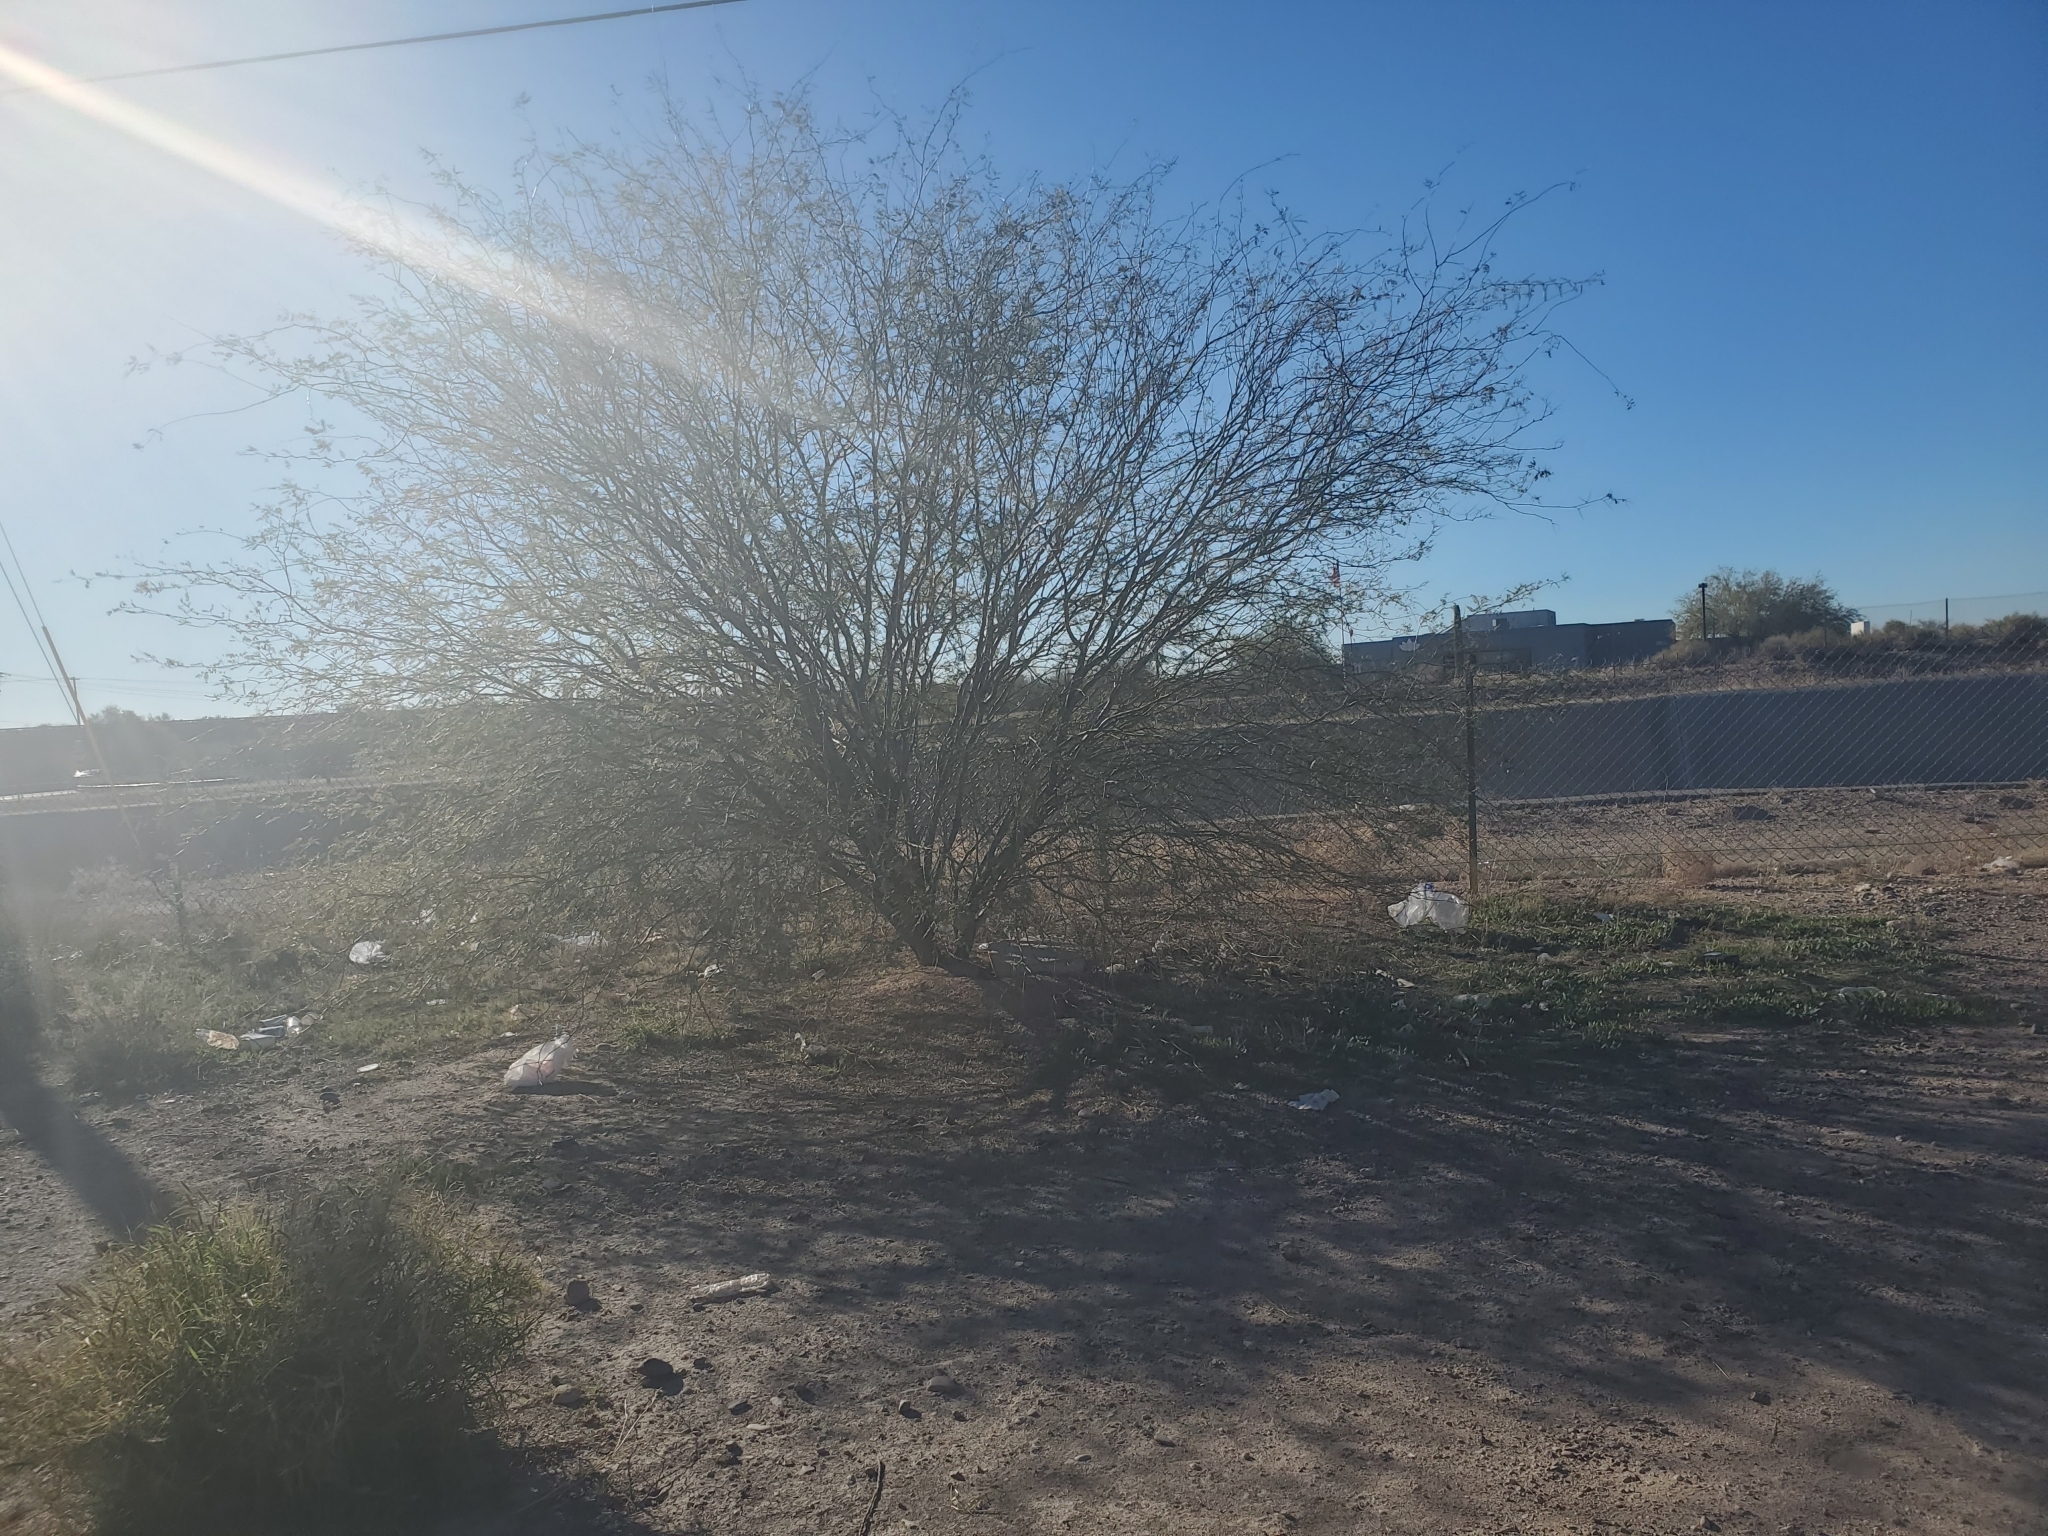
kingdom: Plantae
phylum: Tracheophyta
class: Magnoliopsida
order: Fabales
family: Fabaceae
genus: Prosopis
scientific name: Prosopis velutina
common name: Velvet mesquite
